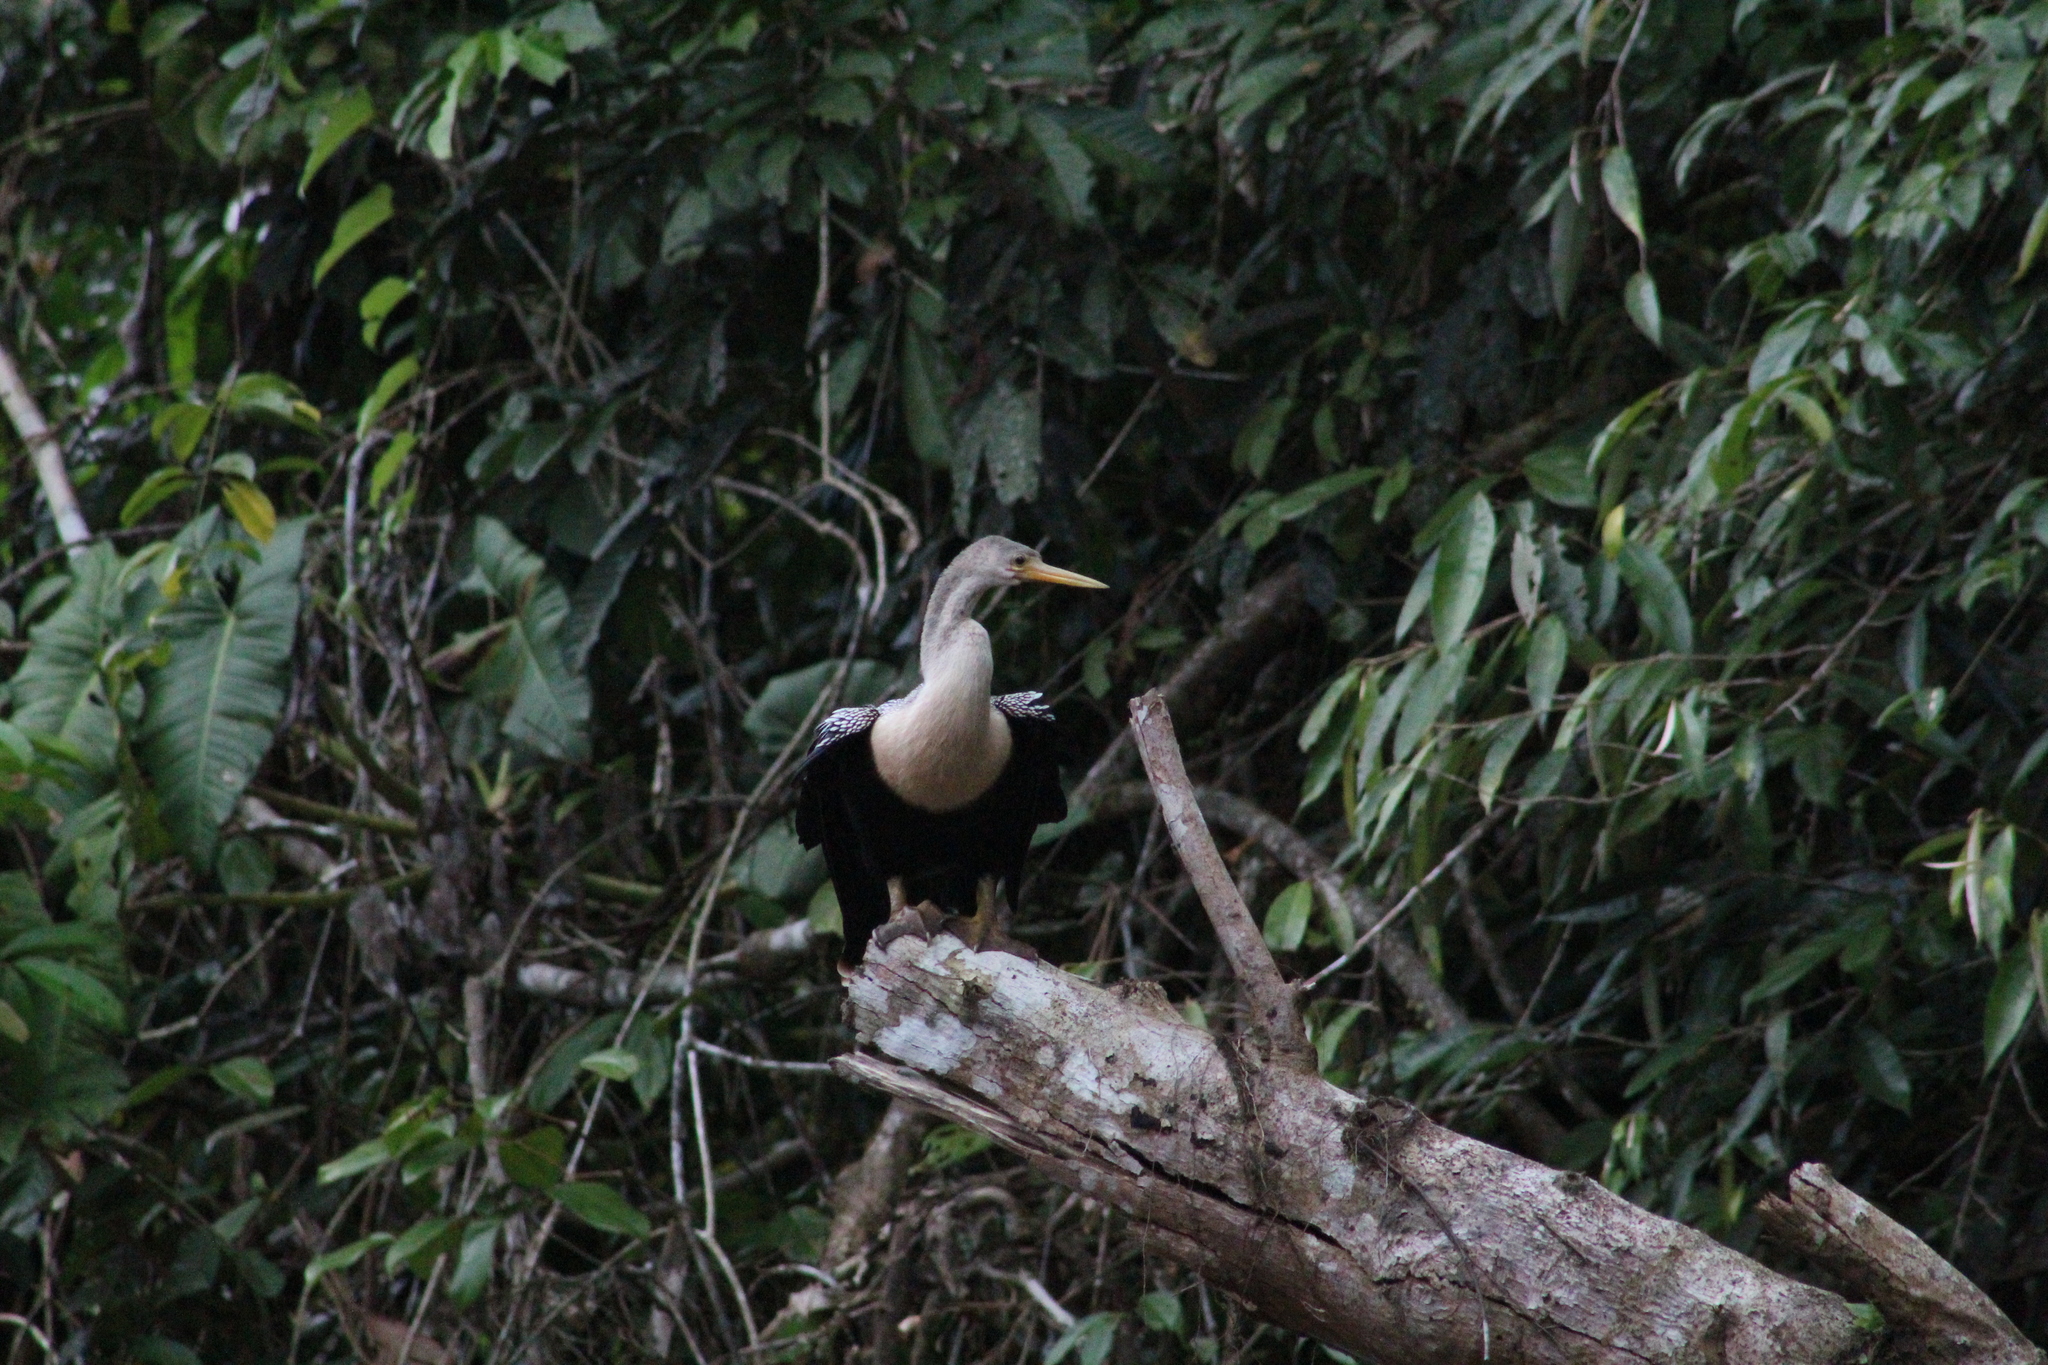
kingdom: Animalia
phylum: Chordata
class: Aves
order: Suliformes
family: Anhingidae
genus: Anhinga
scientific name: Anhinga anhinga
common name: Anhinga
